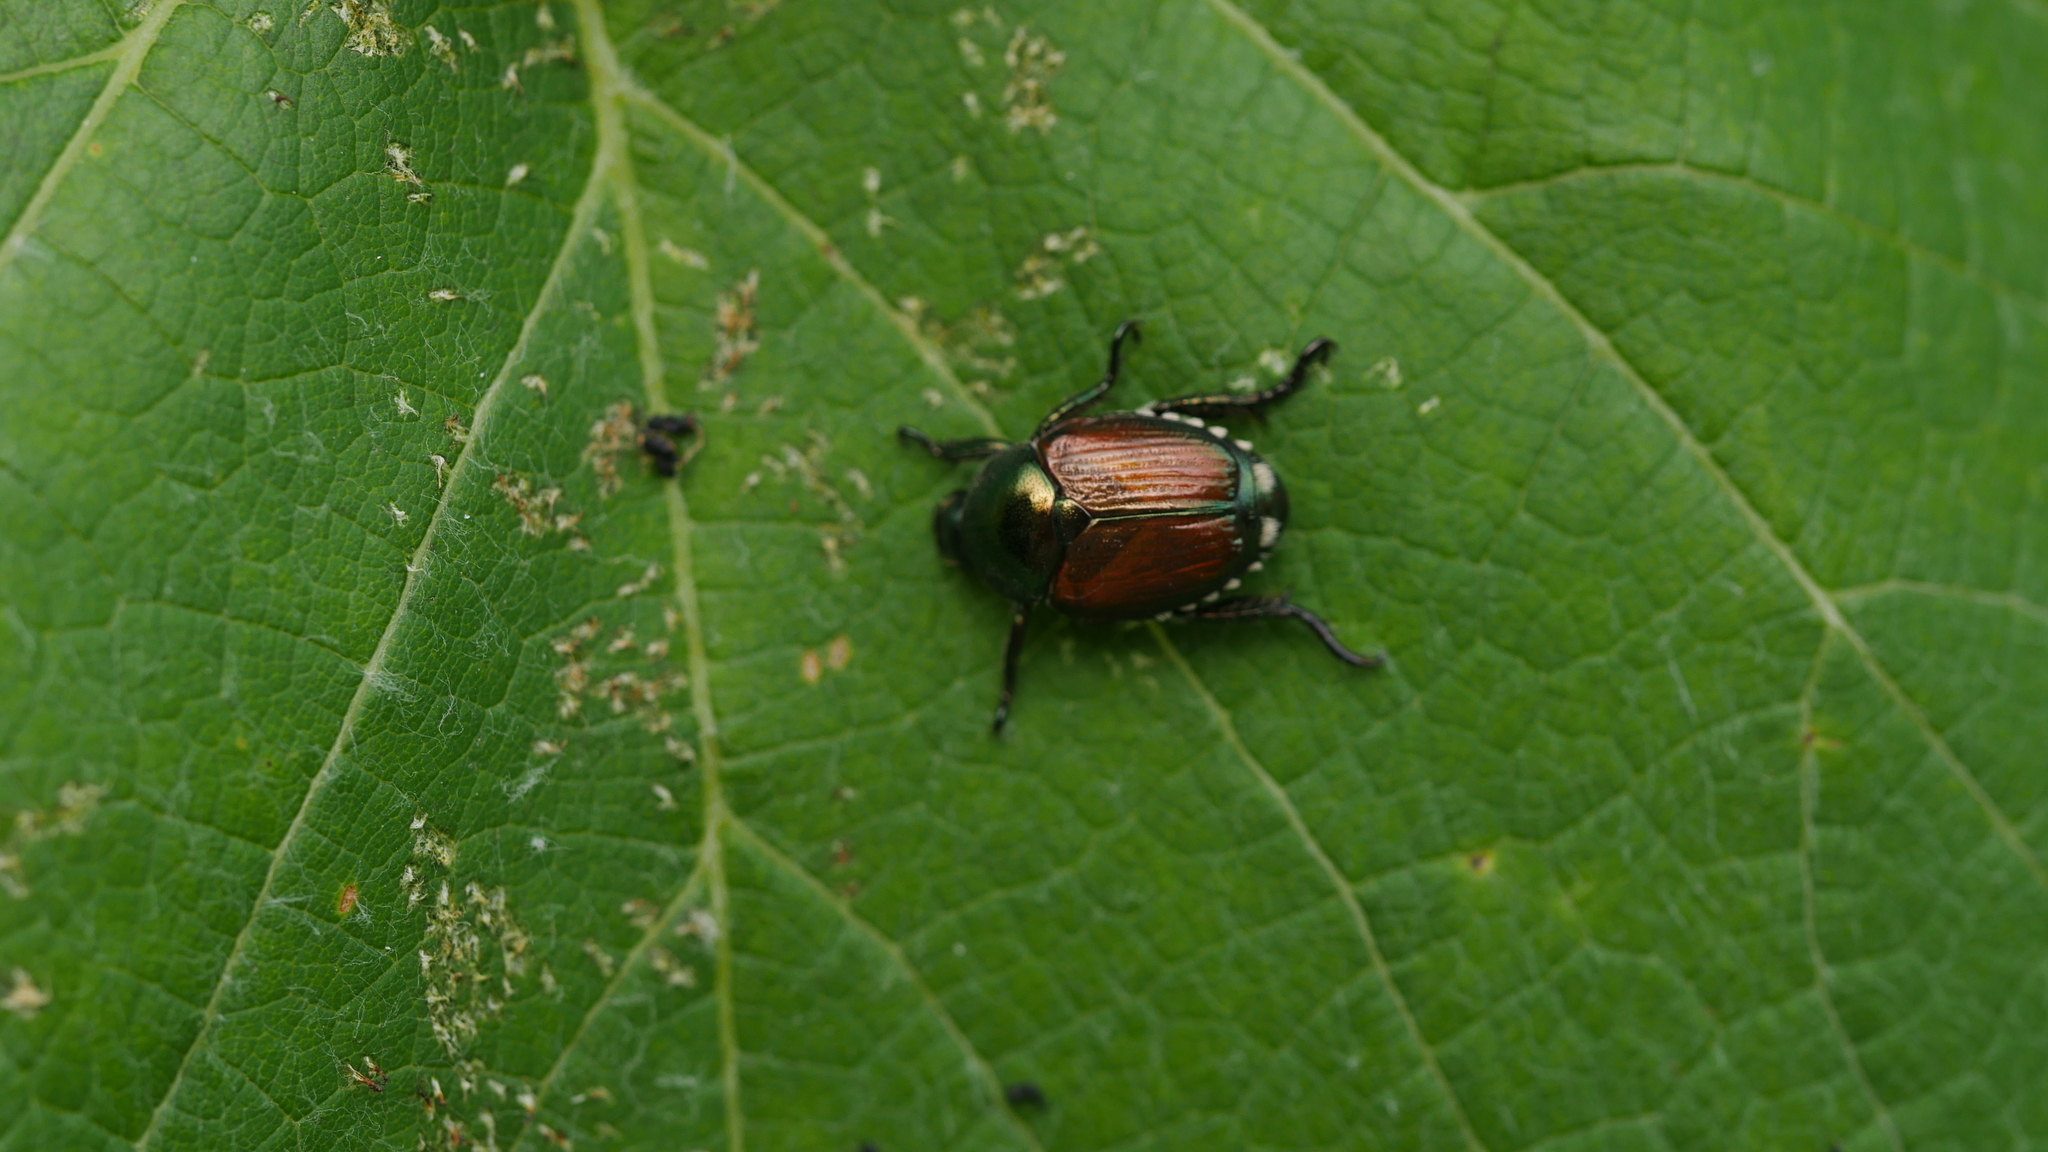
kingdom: Animalia
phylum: Arthropoda
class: Insecta
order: Coleoptera
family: Scarabaeidae
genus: Popillia
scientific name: Popillia japonica
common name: Japanese beetle
